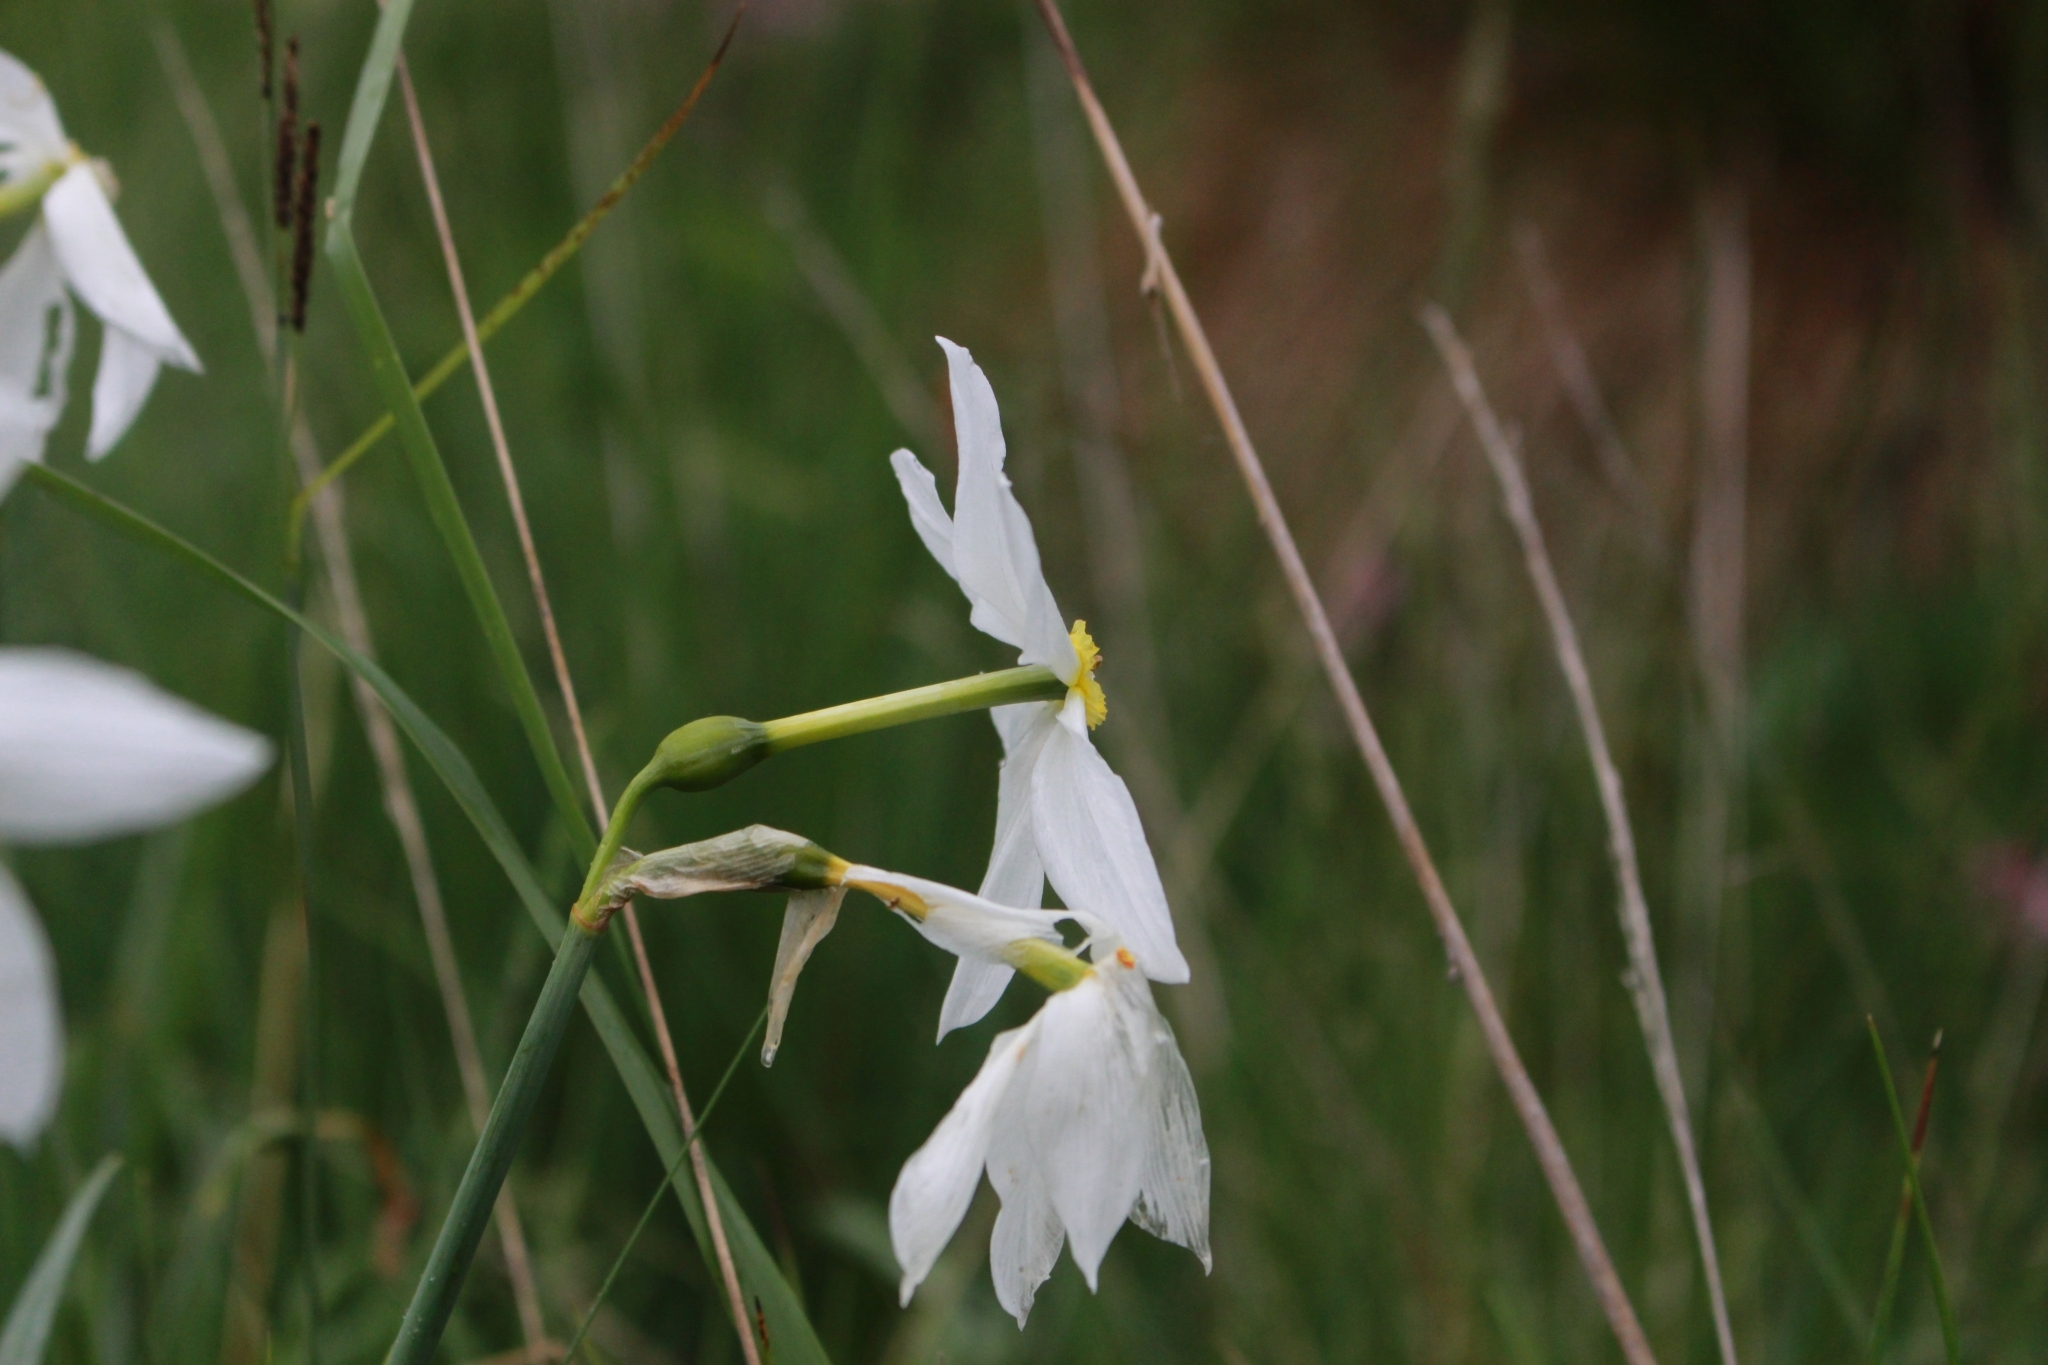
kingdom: Plantae
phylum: Tracheophyta
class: Liliopsida
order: Asparagales
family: Amaryllidaceae
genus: Narcissus
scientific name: Narcissus poeticus
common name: Pheasant's-eye daffodil
